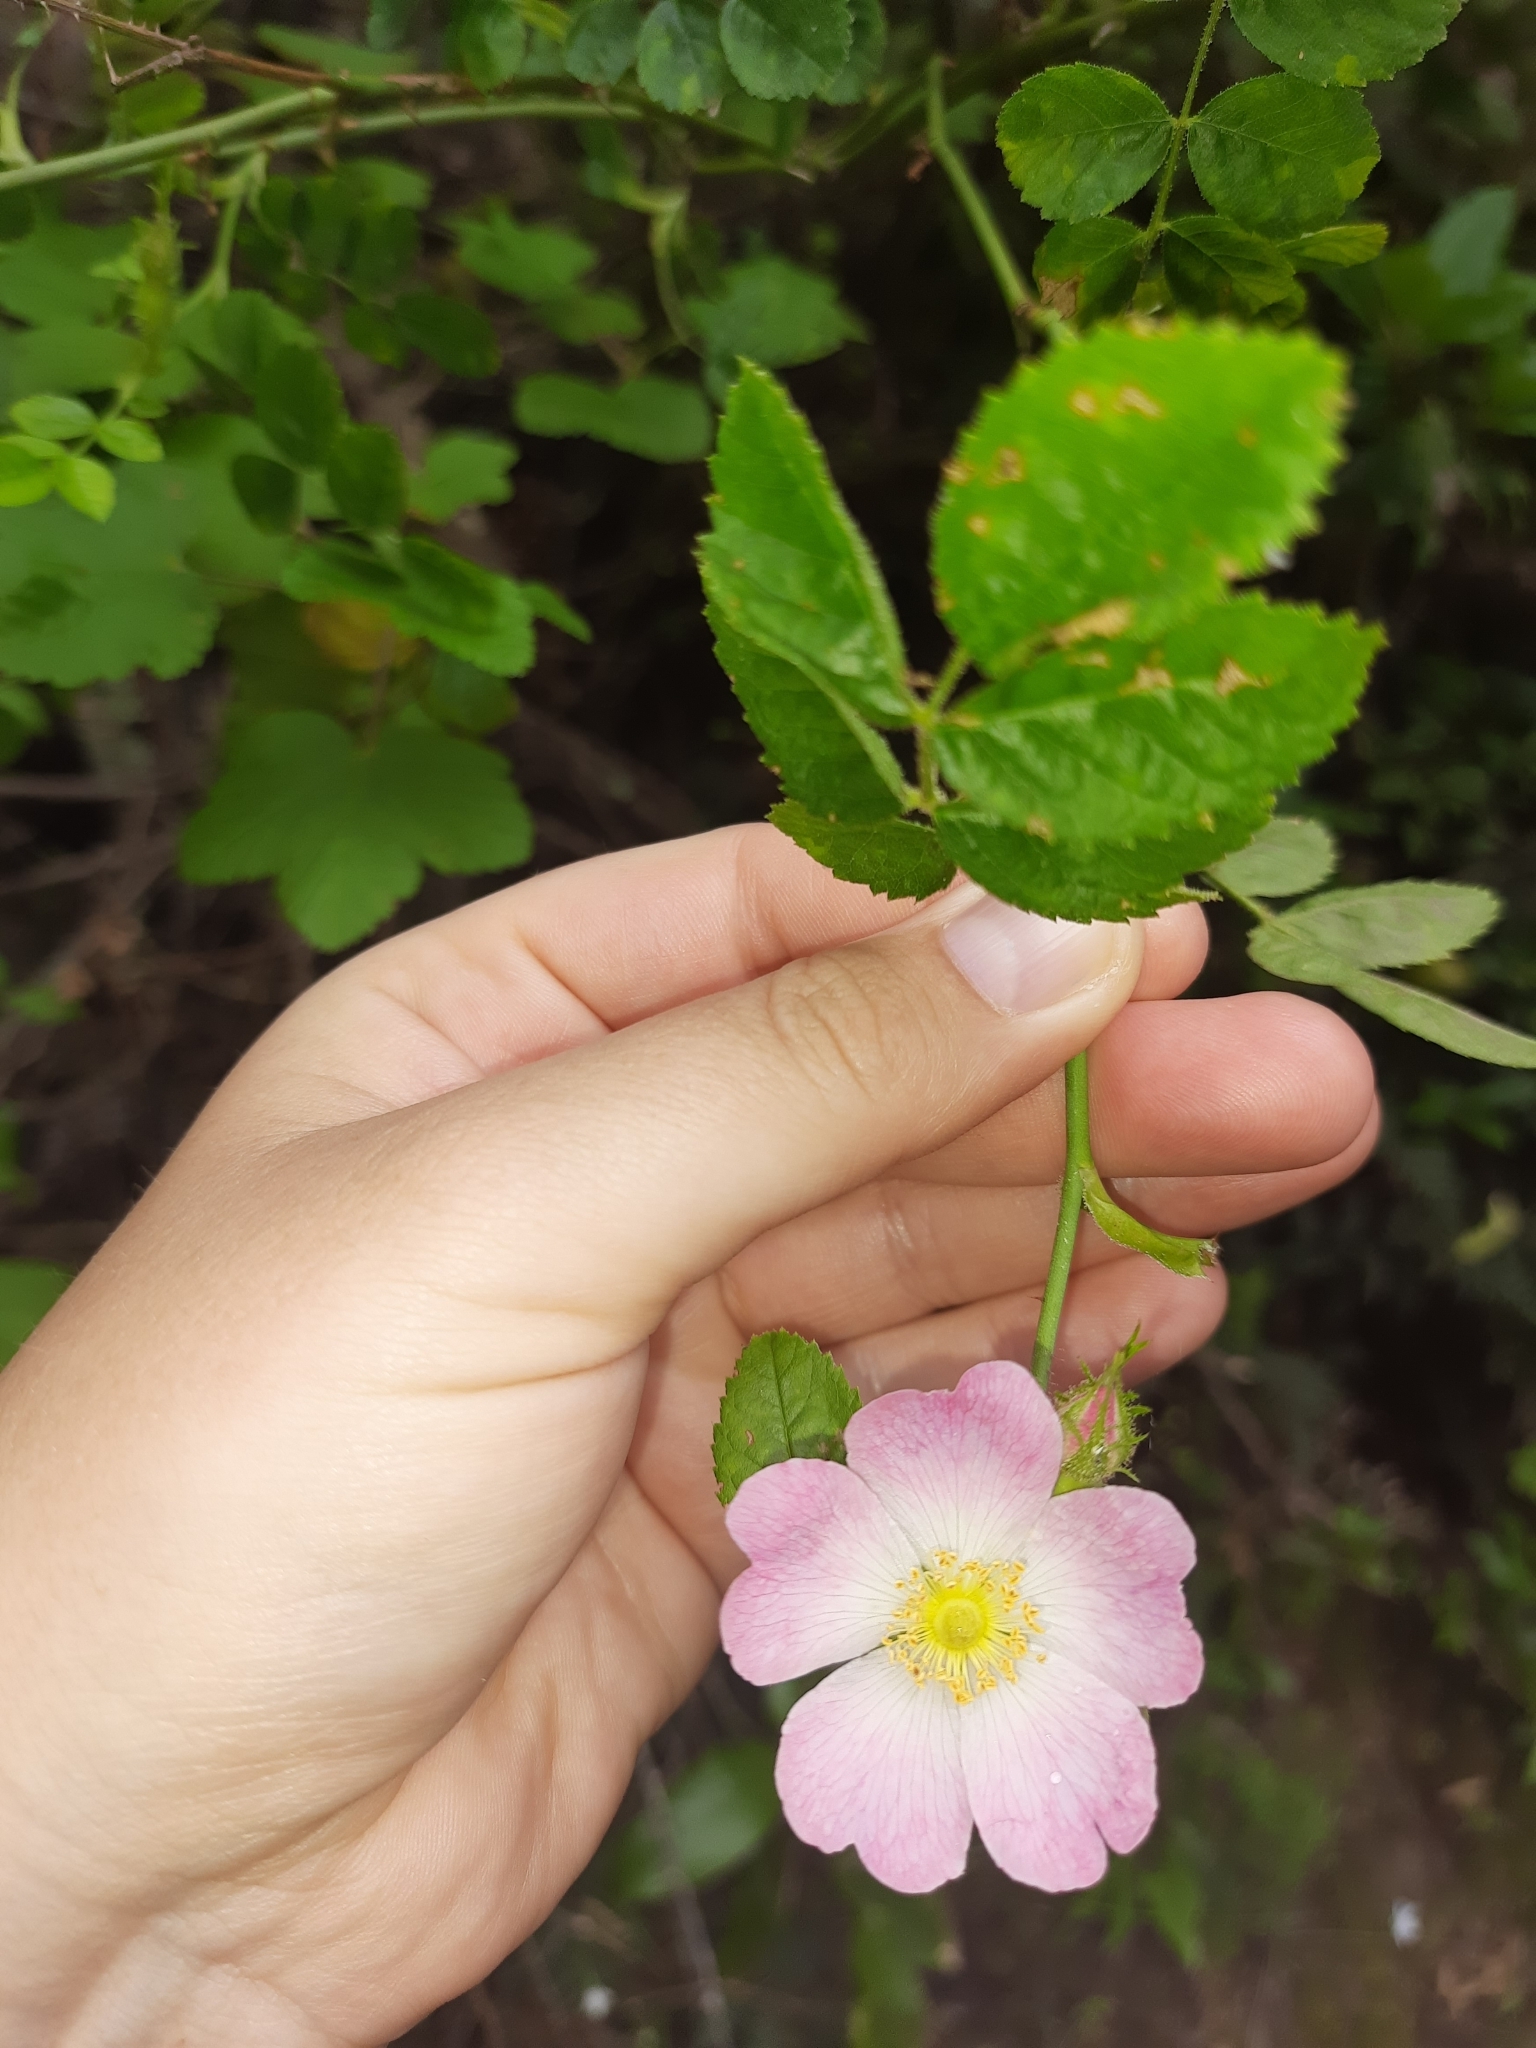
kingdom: Plantae
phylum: Tracheophyta
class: Magnoliopsida
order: Rosales
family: Rosaceae
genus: Rosa
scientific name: Rosa rubiginosa
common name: Sweet-briar
